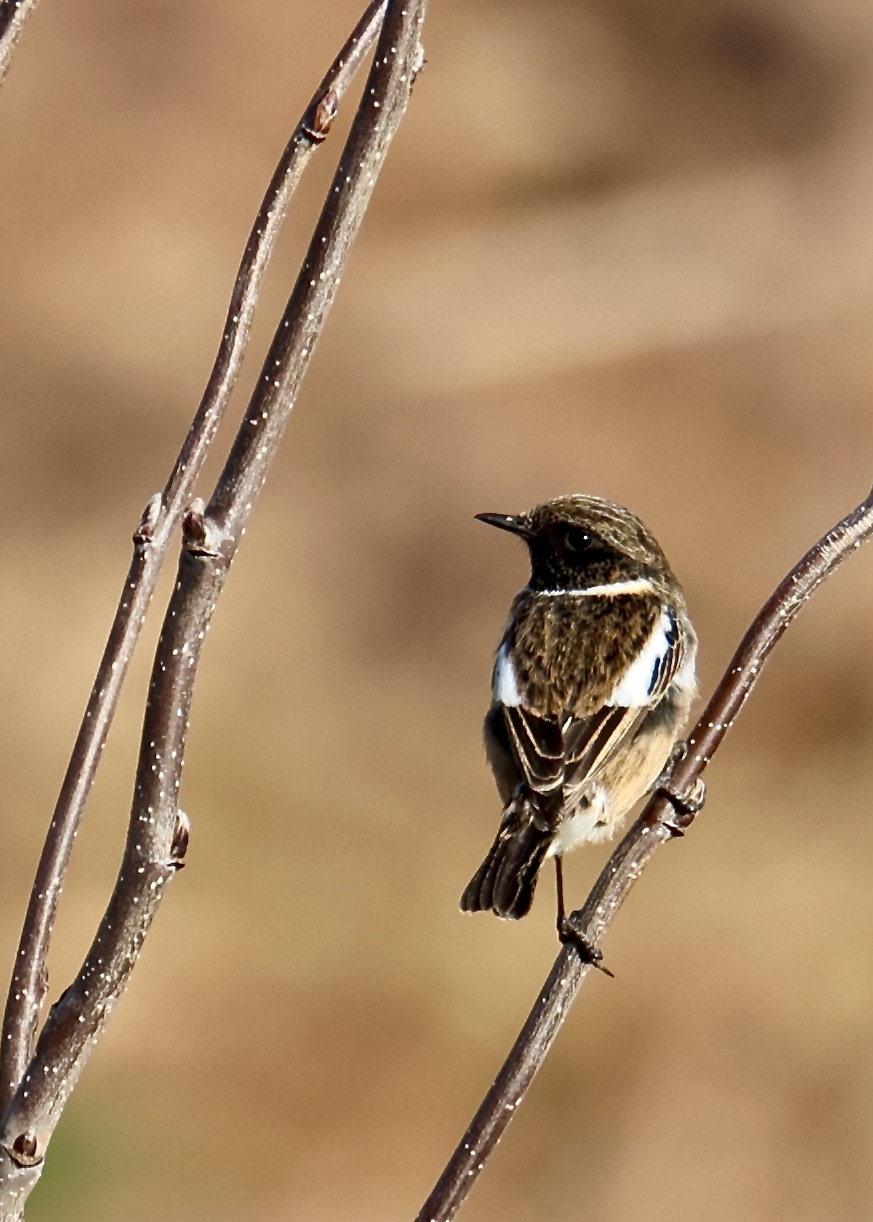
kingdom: Animalia
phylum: Chordata
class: Aves
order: Passeriformes
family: Muscicapidae
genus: Saxicola
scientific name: Saxicola rubicola
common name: European stonechat
